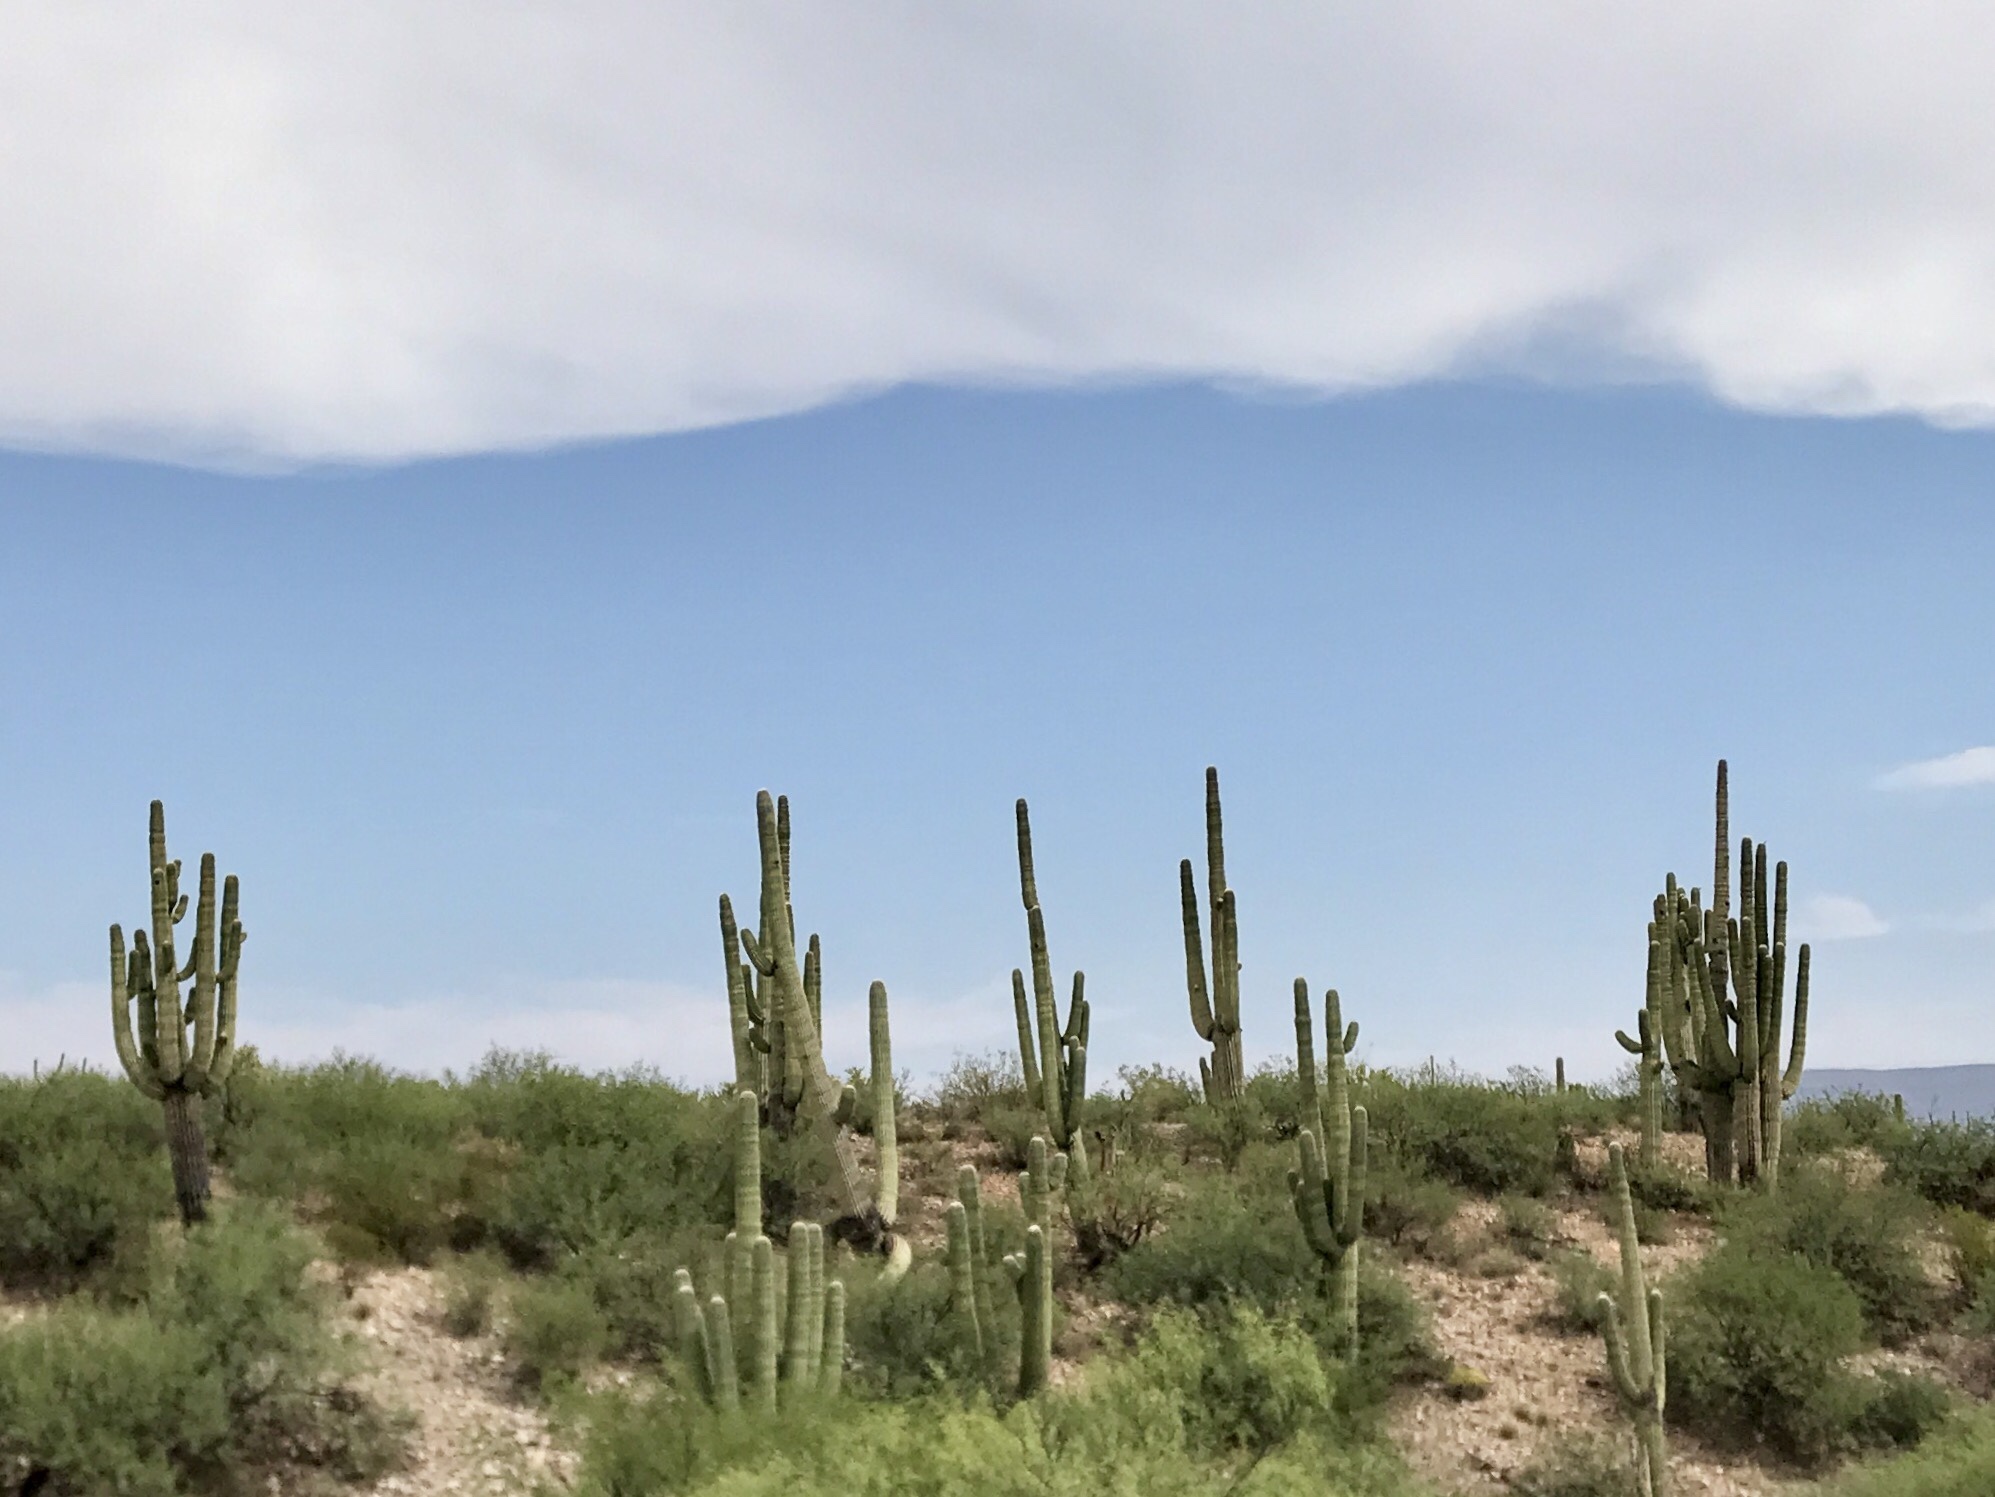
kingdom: Plantae
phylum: Tracheophyta
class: Magnoliopsida
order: Caryophyllales
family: Cactaceae
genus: Carnegiea
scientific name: Carnegiea gigantea
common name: Saguaro
